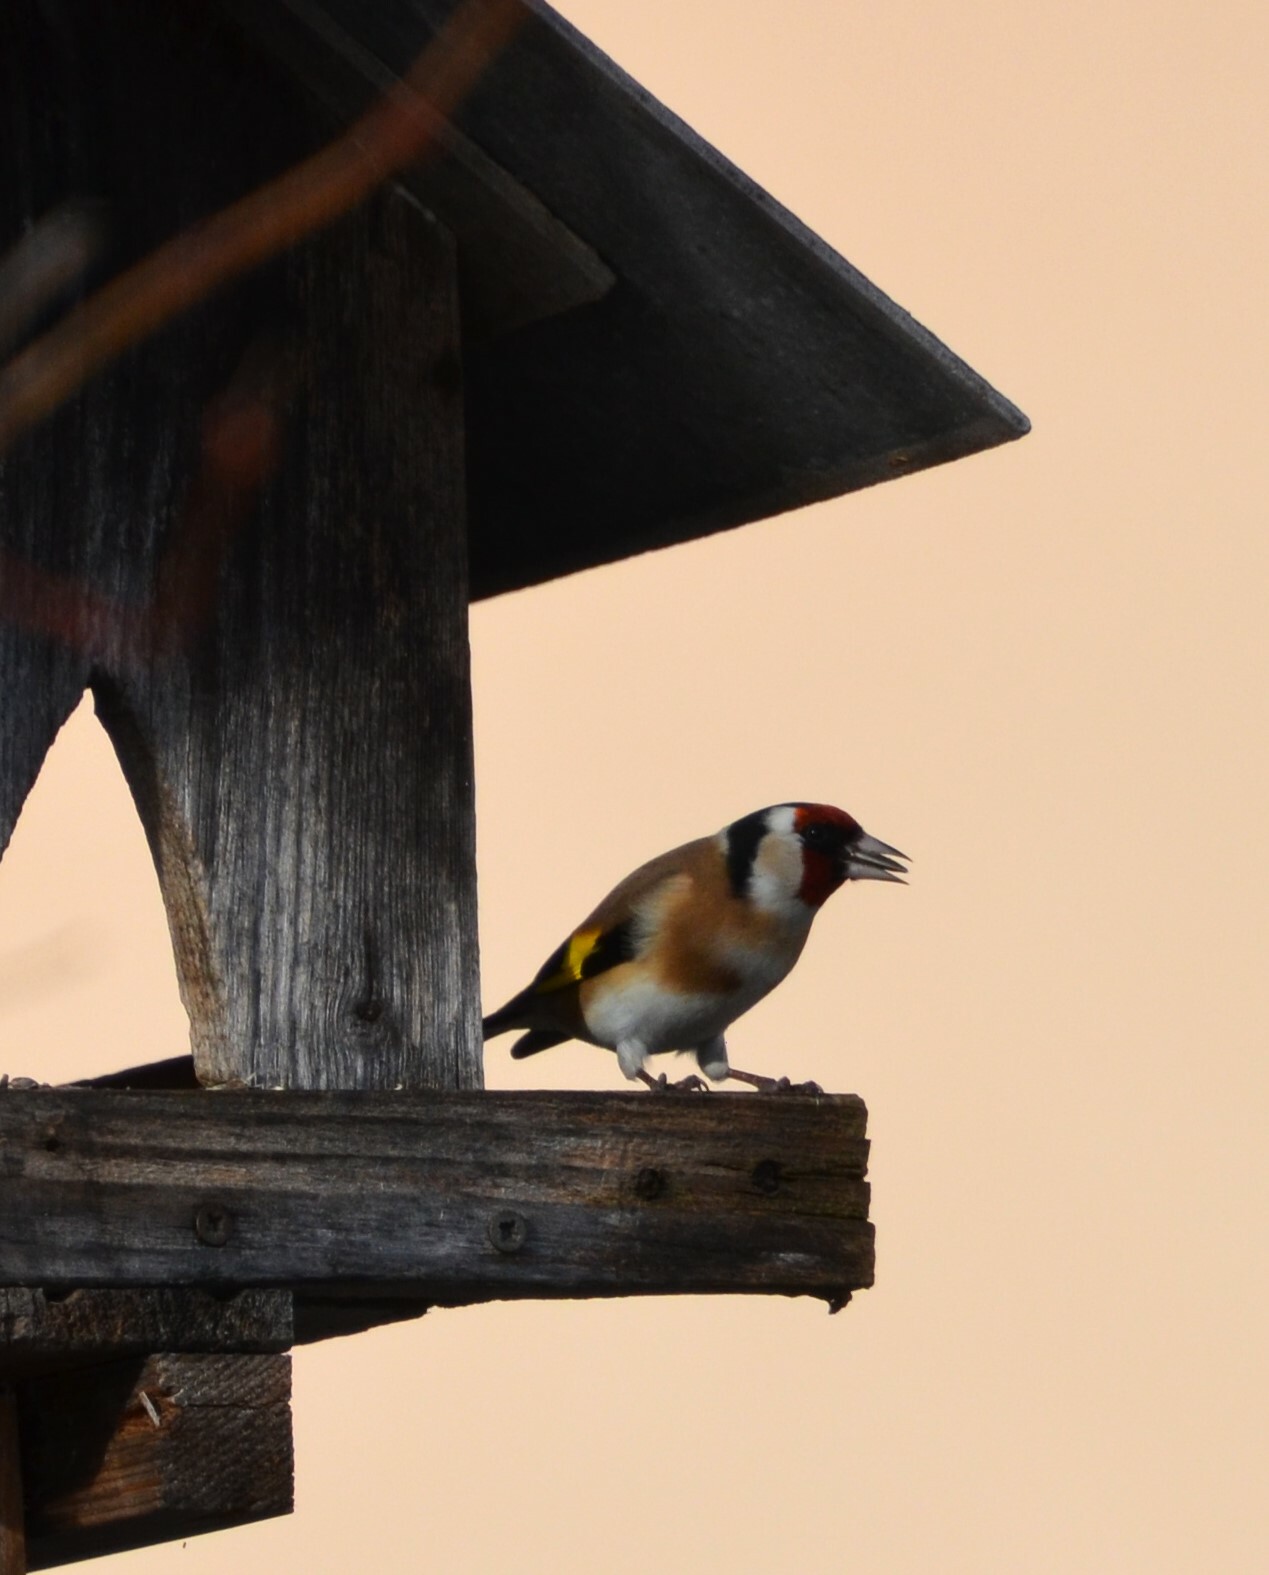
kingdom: Animalia
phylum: Chordata
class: Aves
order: Passeriformes
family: Fringillidae
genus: Carduelis
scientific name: Carduelis carduelis
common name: European goldfinch
